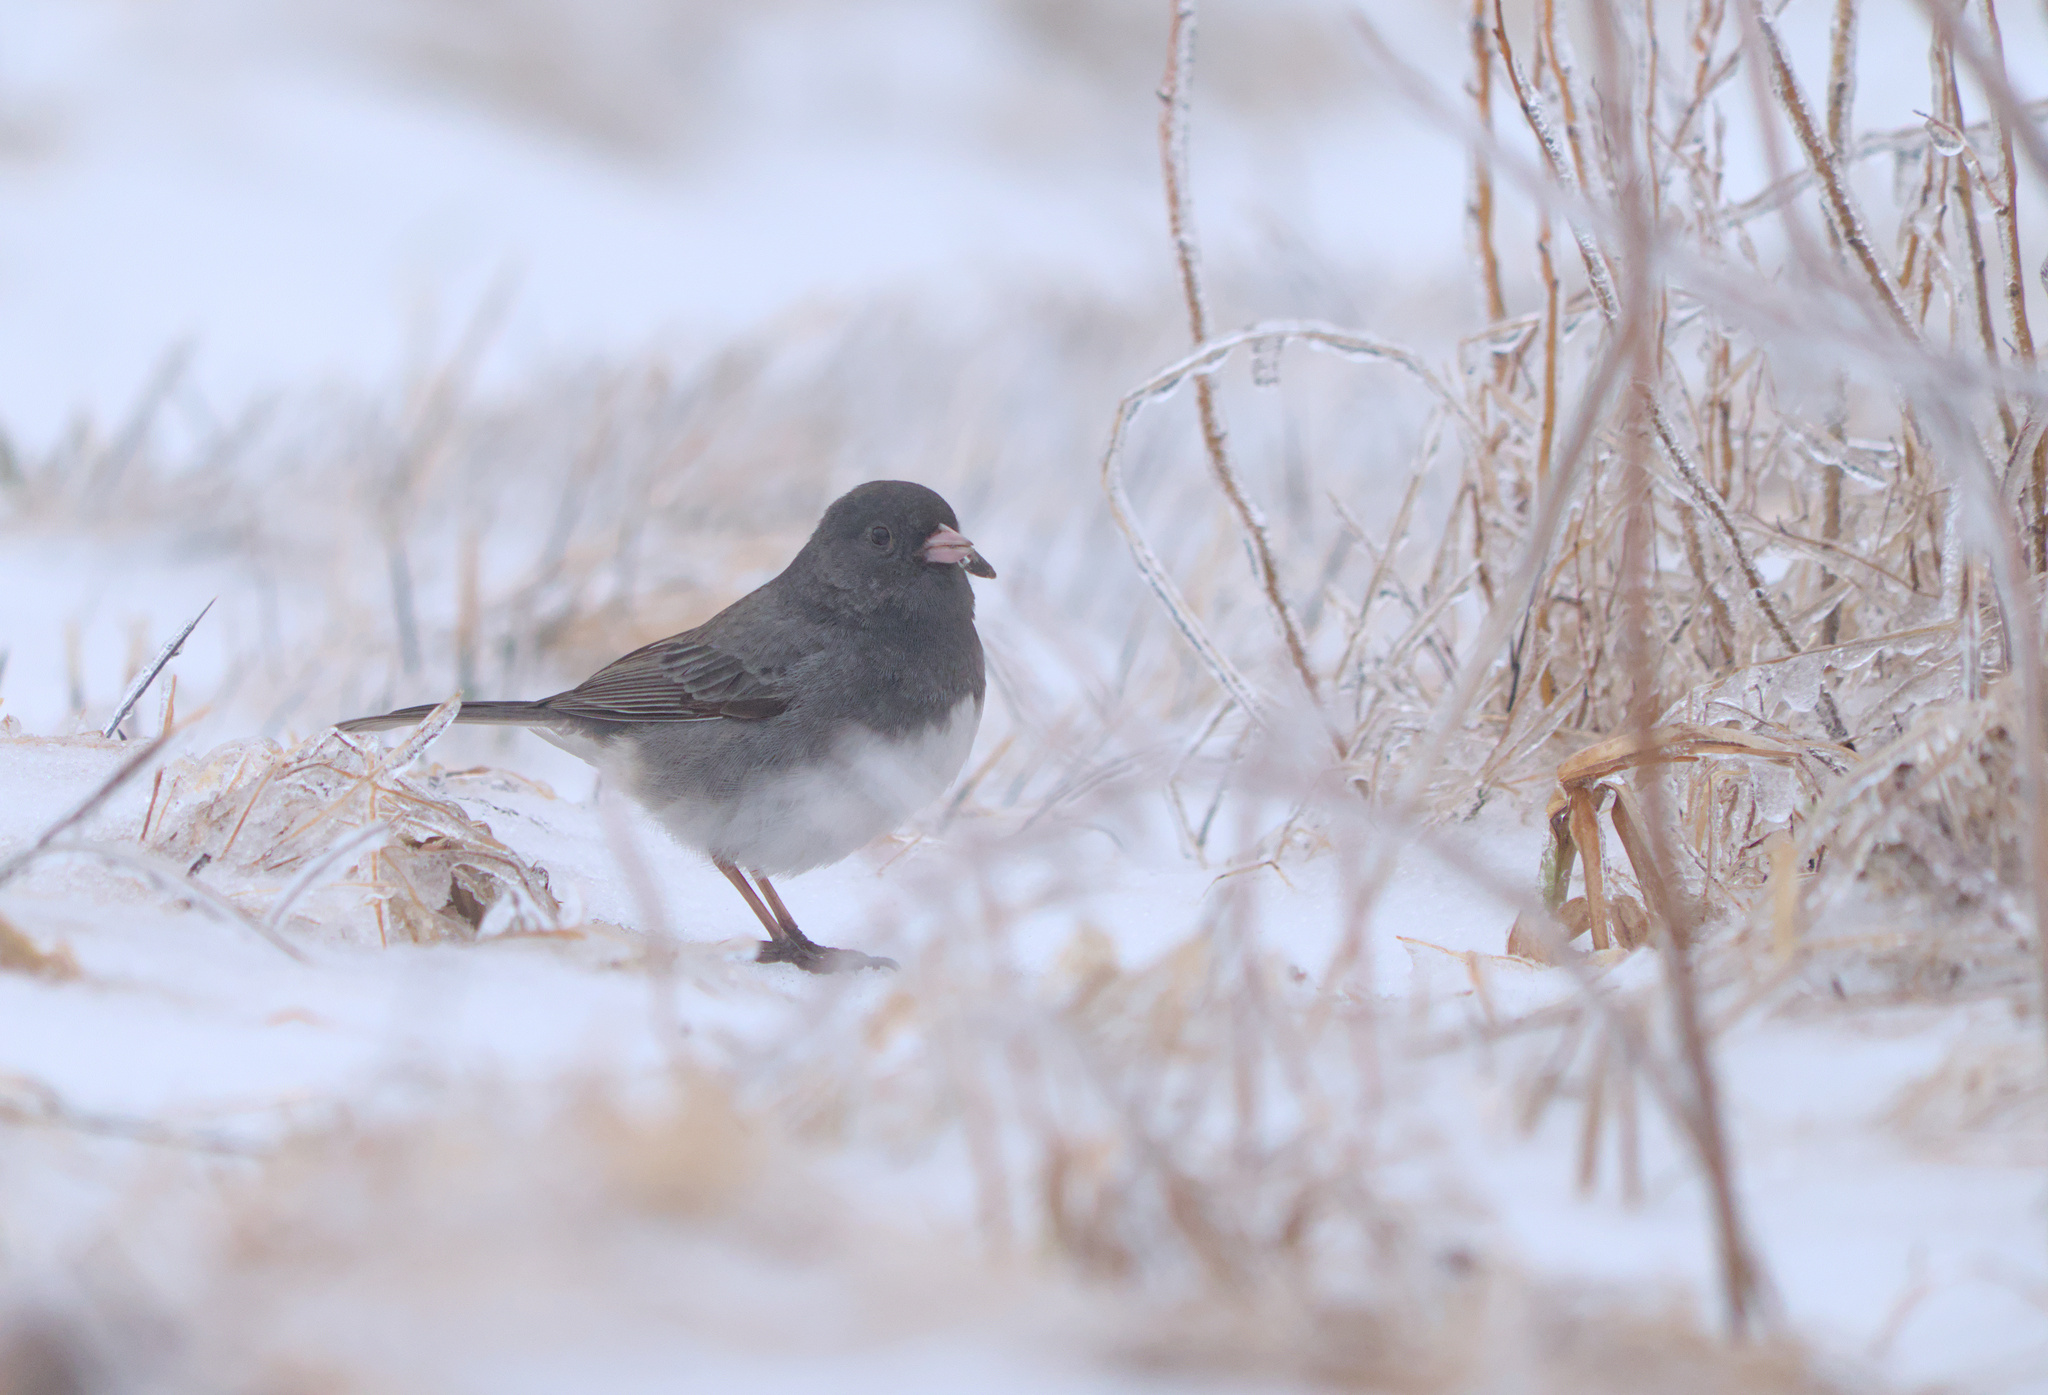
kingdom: Animalia
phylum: Chordata
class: Aves
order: Passeriformes
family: Passerellidae
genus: Junco
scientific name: Junco hyemalis
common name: Dark-eyed junco
